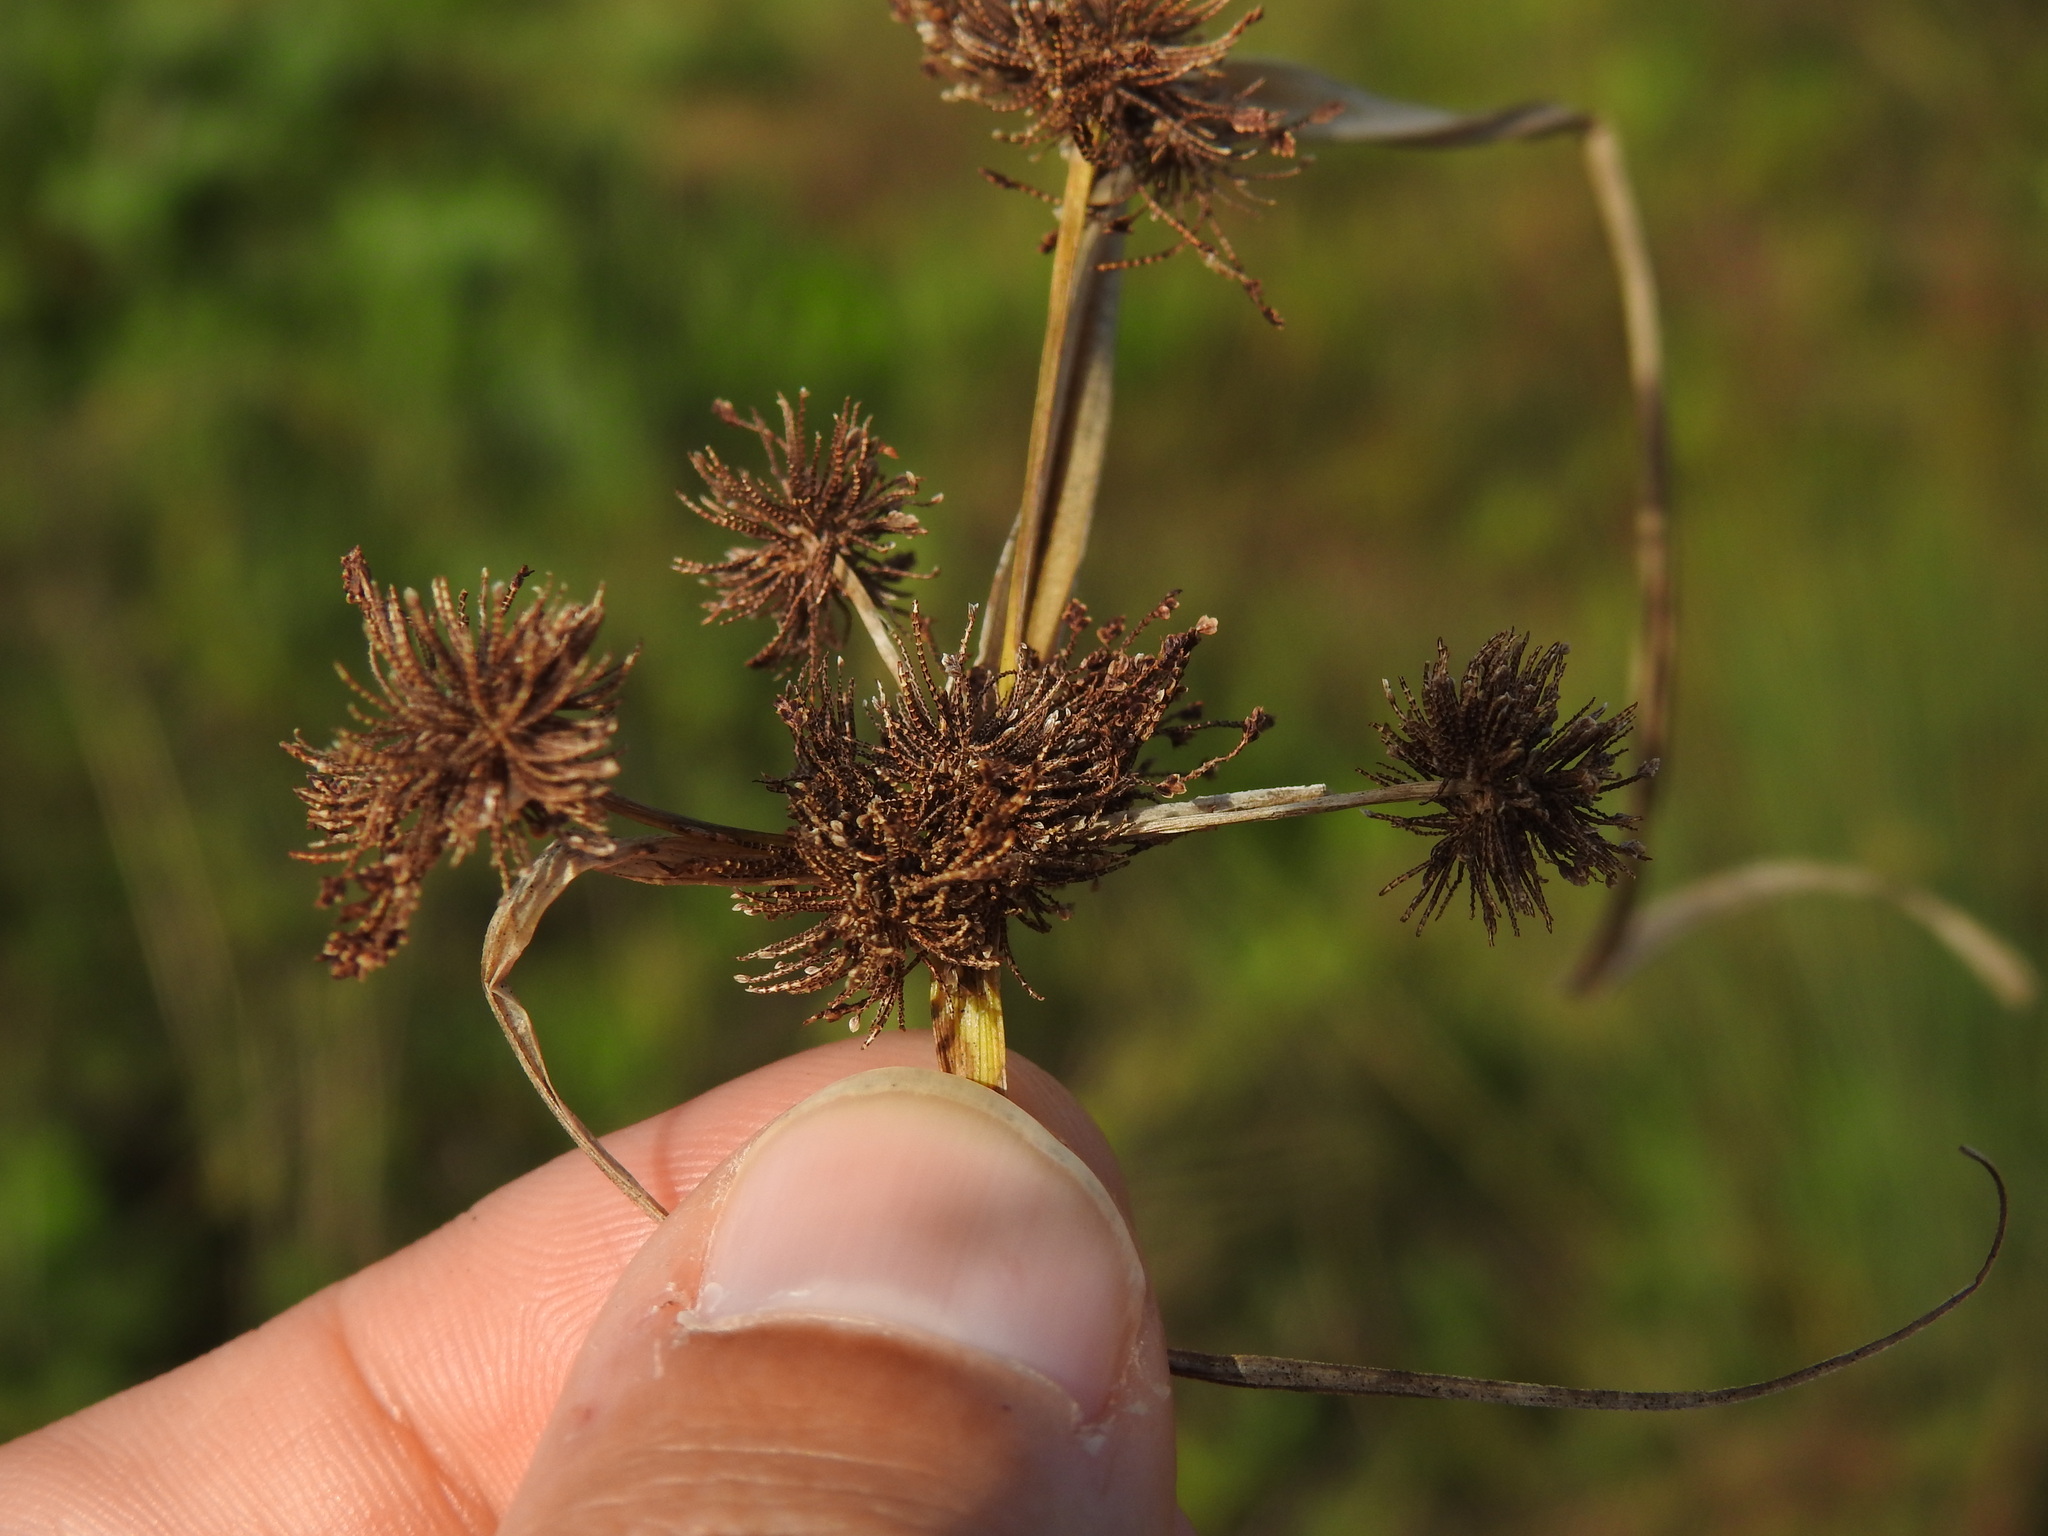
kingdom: Plantae
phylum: Tracheophyta
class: Liliopsida
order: Poales
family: Cyperaceae
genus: Cyperus
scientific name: Cyperus difformis
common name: Variable flatsedge
